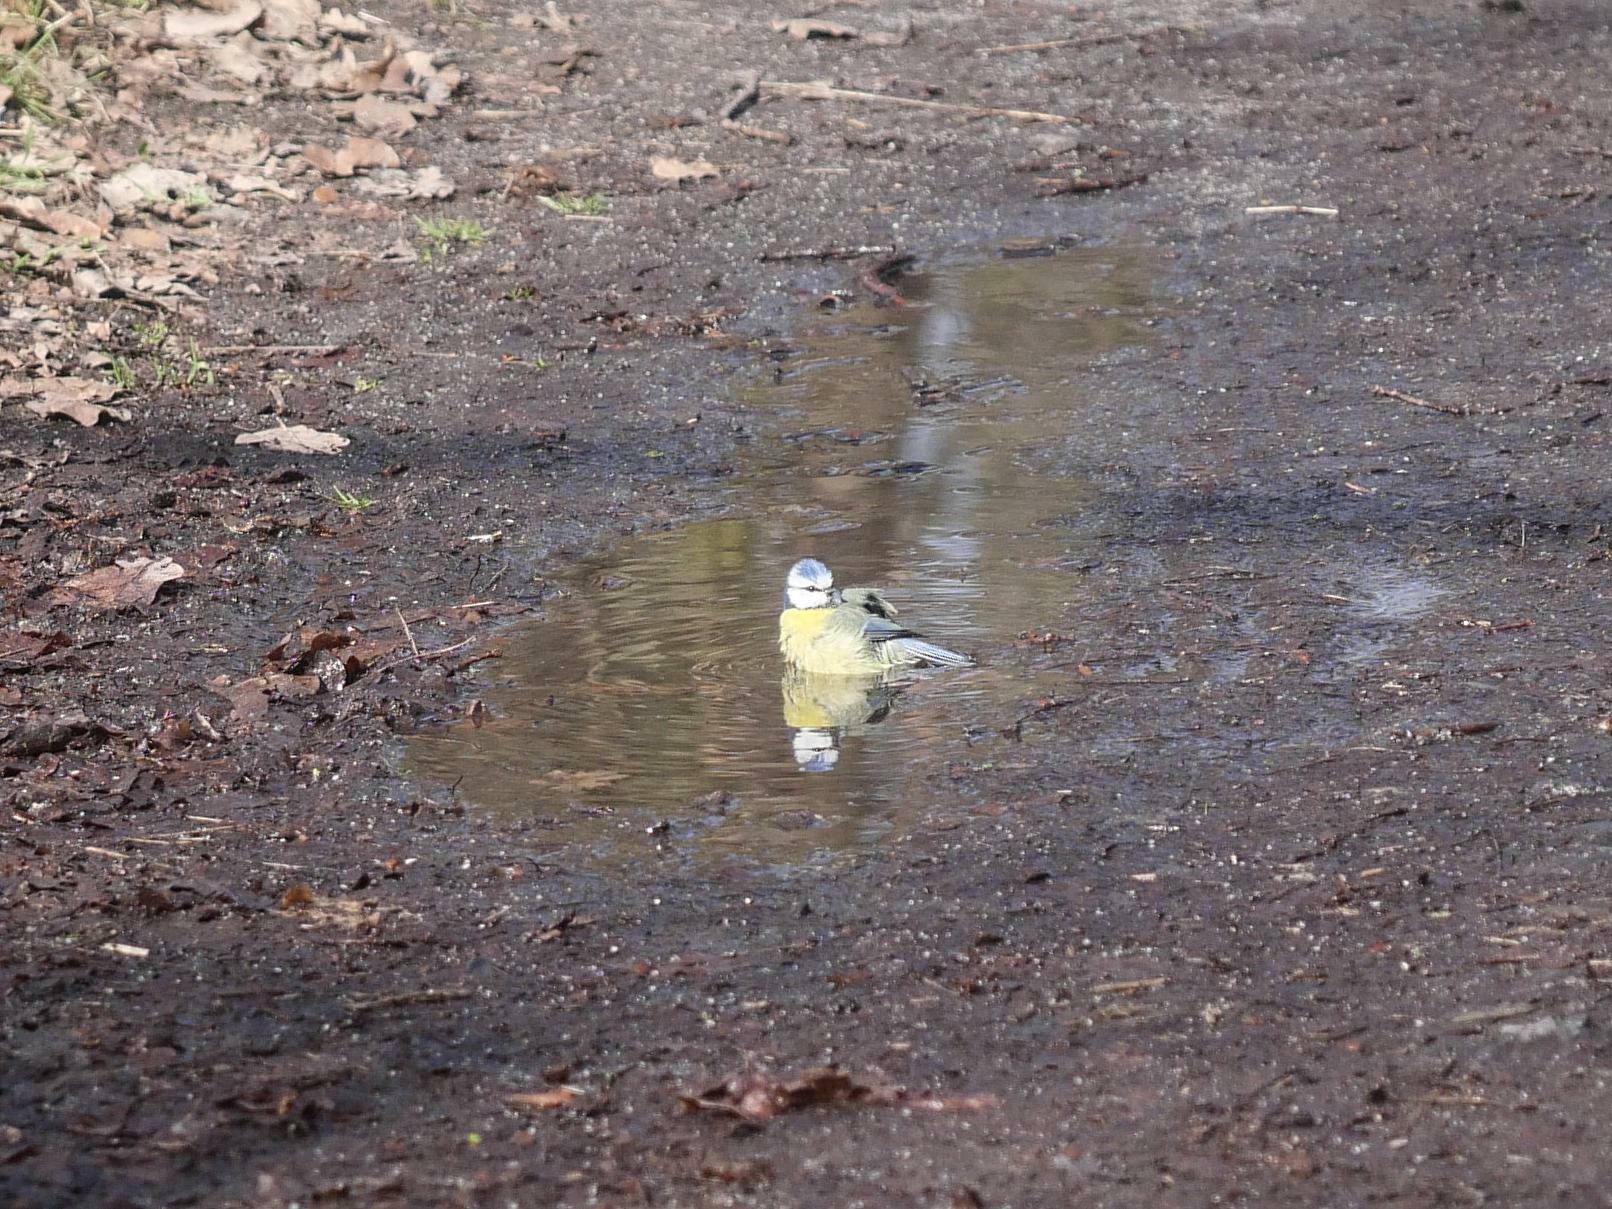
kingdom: Animalia
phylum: Chordata
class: Aves
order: Passeriformes
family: Paridae
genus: Cyanistes
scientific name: Cyanistes caeruleus
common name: Eurasian blue tit
